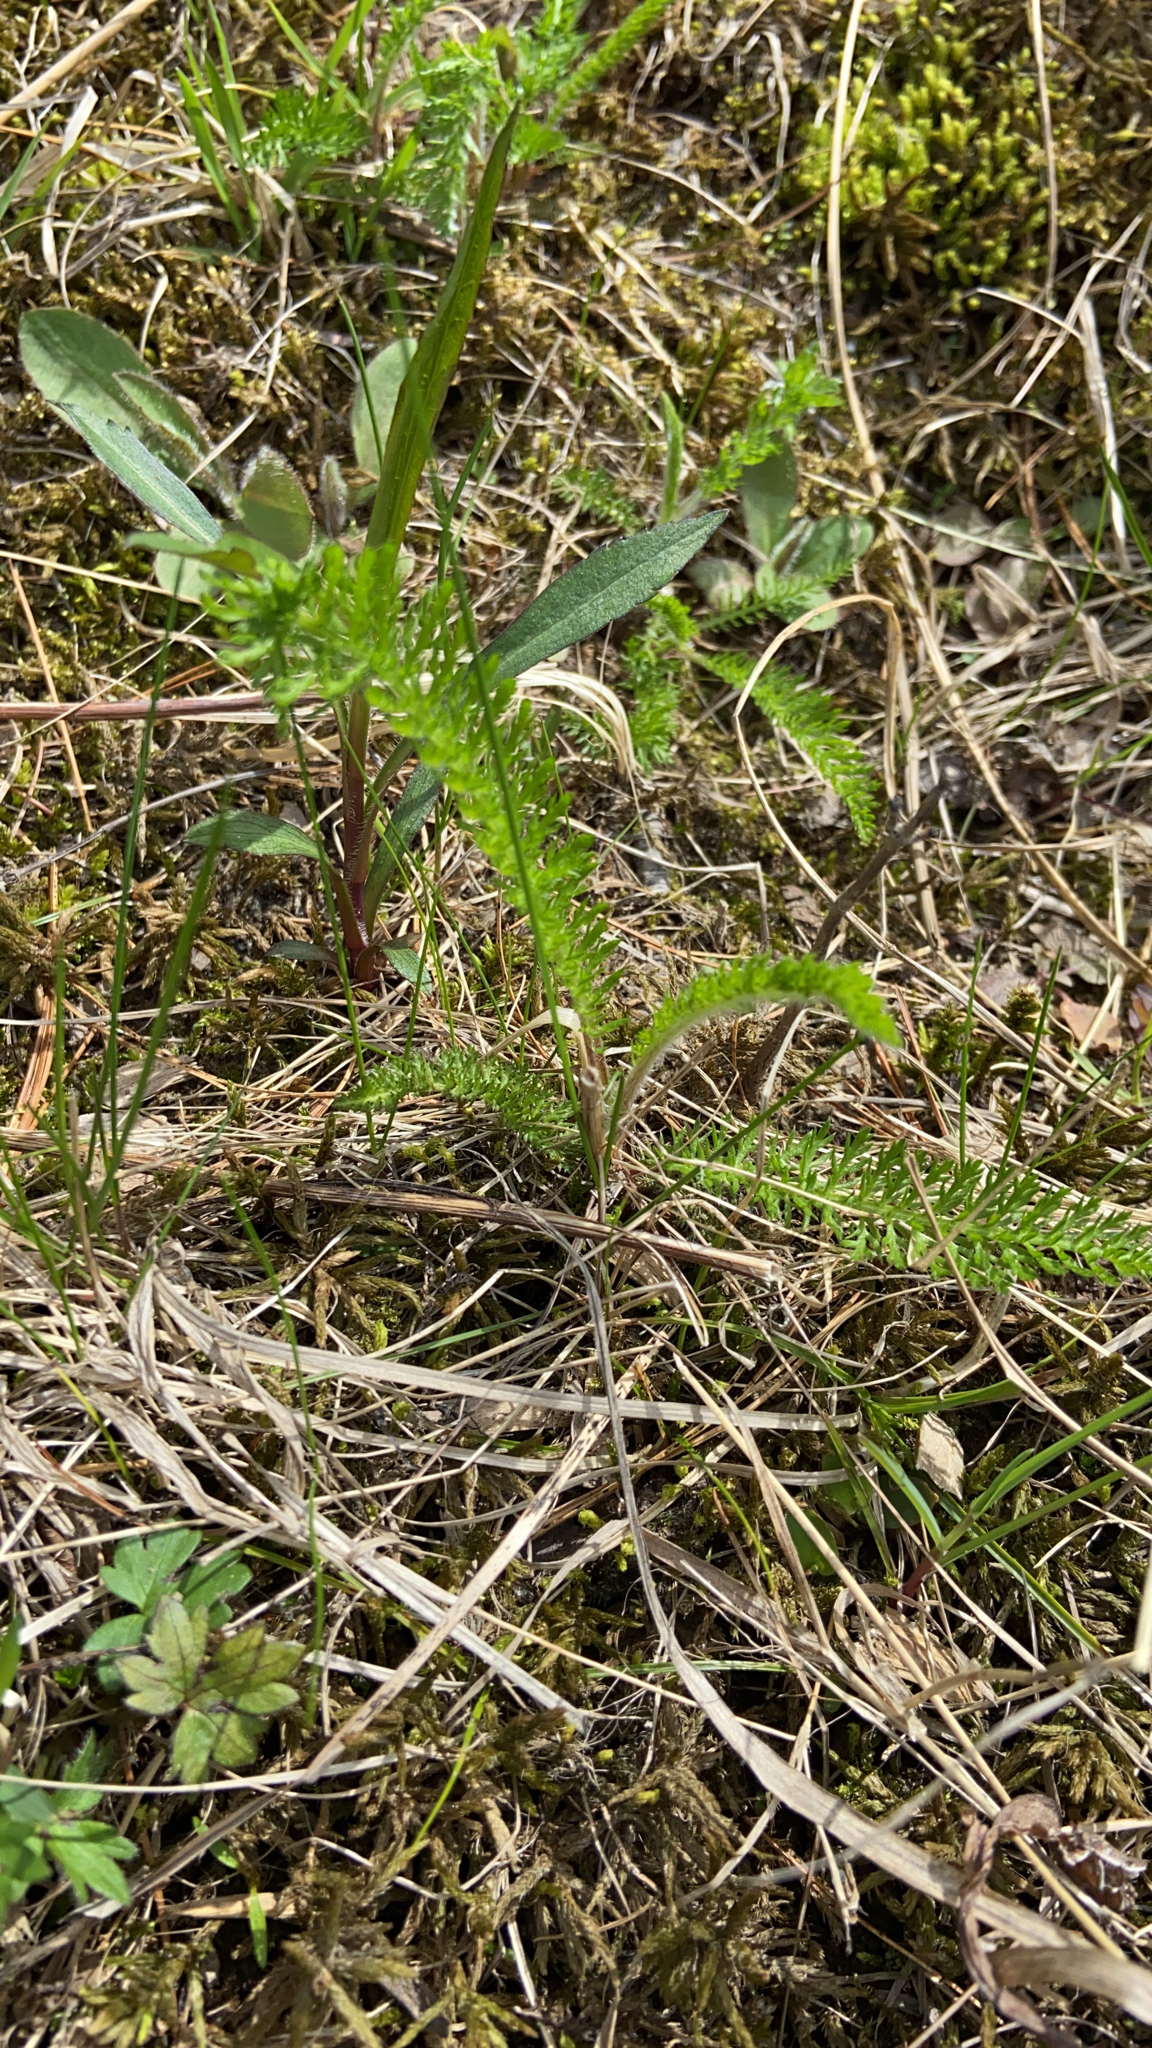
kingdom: Plantae
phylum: Tracheophyta
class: Magnoliopsida
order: Asterales
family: Asteraceae
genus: Achillea
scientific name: Achillea millefolium
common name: Yarrow
